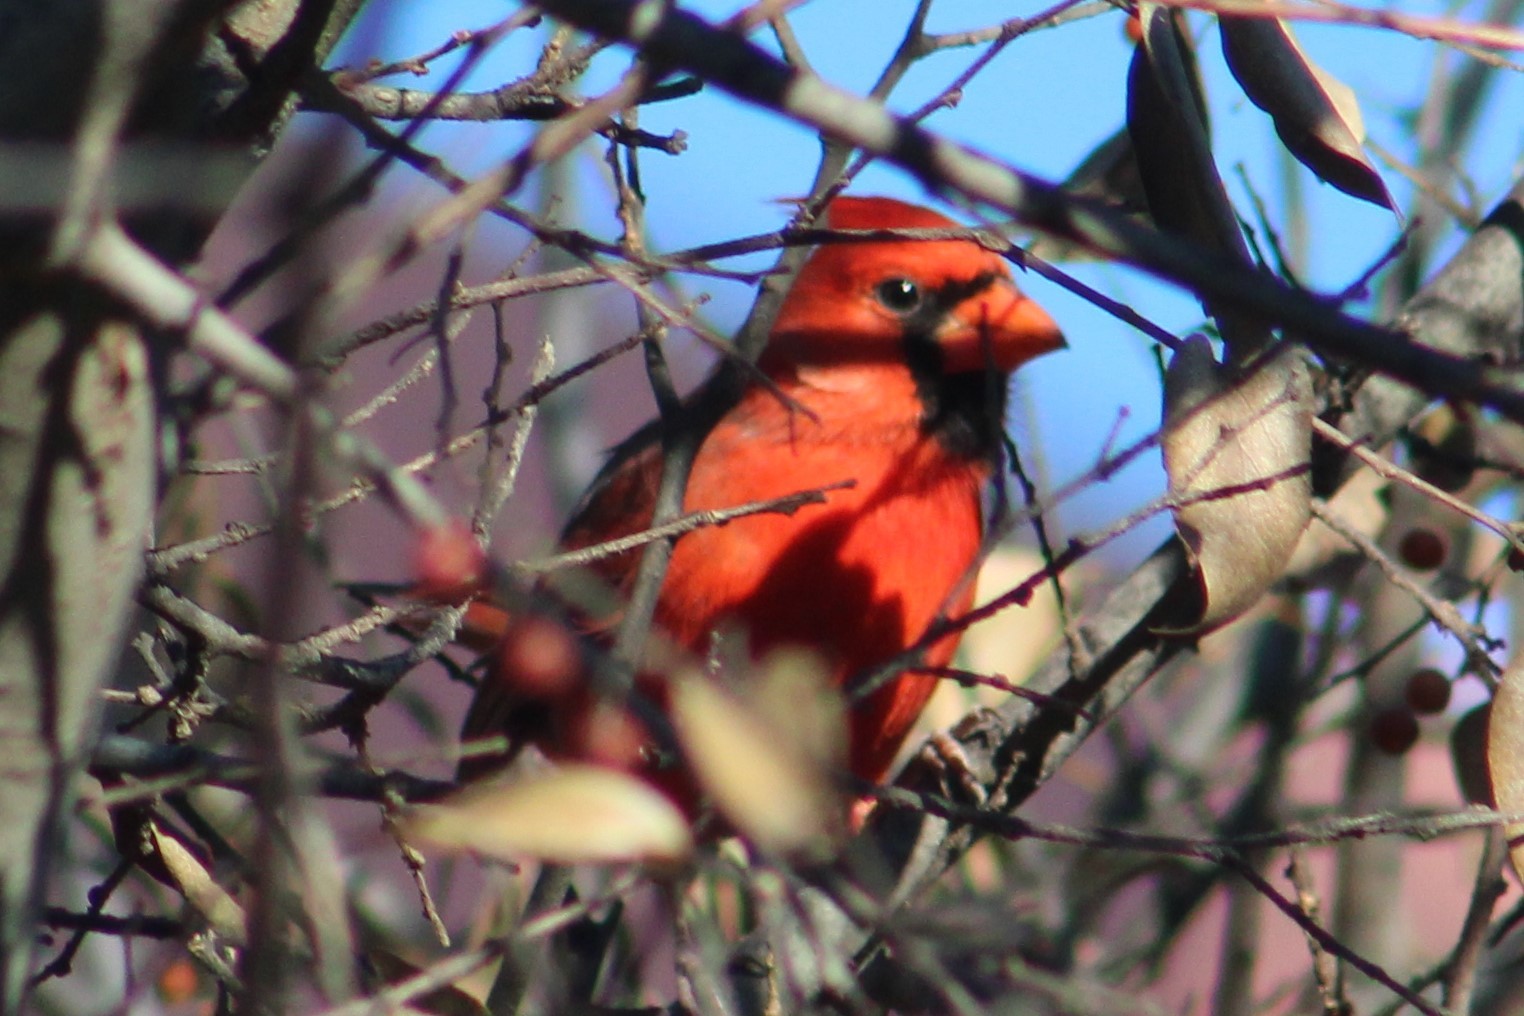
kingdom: Animalia
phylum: Chordata
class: Aves
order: Passeriformes
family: Cardinalidae
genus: Cardinalis
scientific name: Cardinalis cardinalis
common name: Northern cardinal
